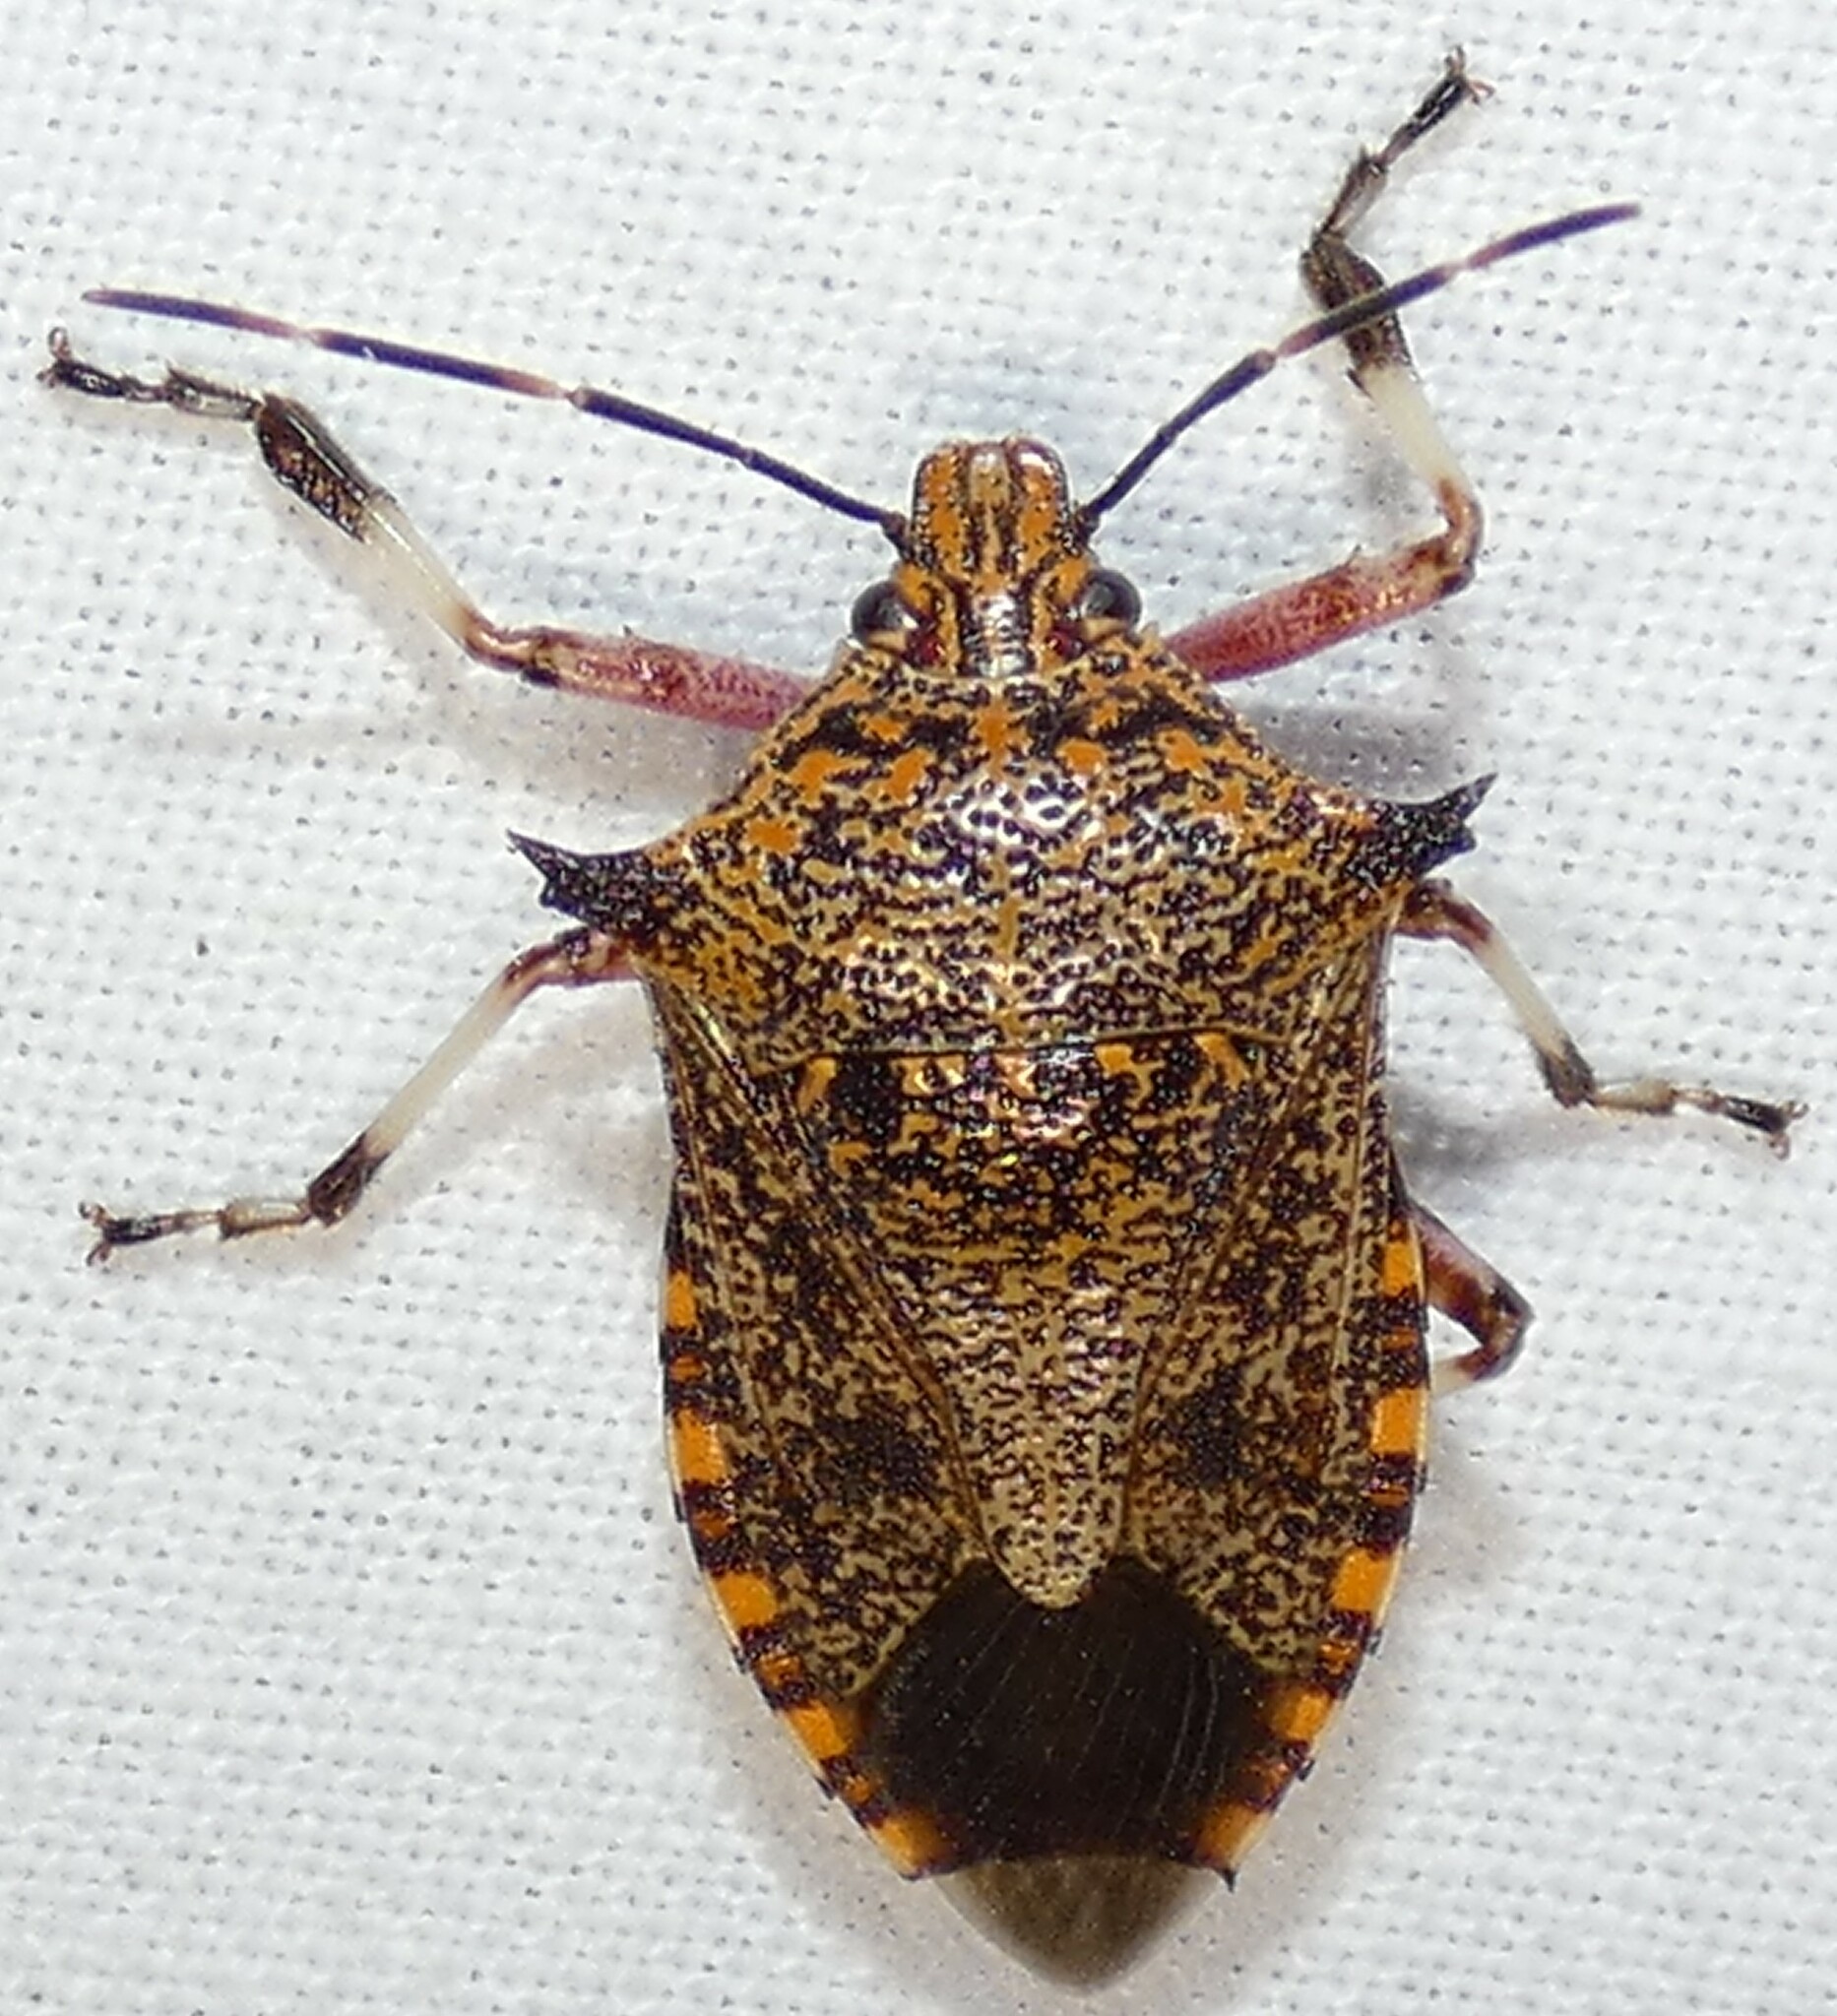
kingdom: Animalia
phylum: Arthropoda
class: Insecta
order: Hemiptera
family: Pentatomidae
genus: Alcaeorrhynchus
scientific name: Alcaeorrhynchus grandis
